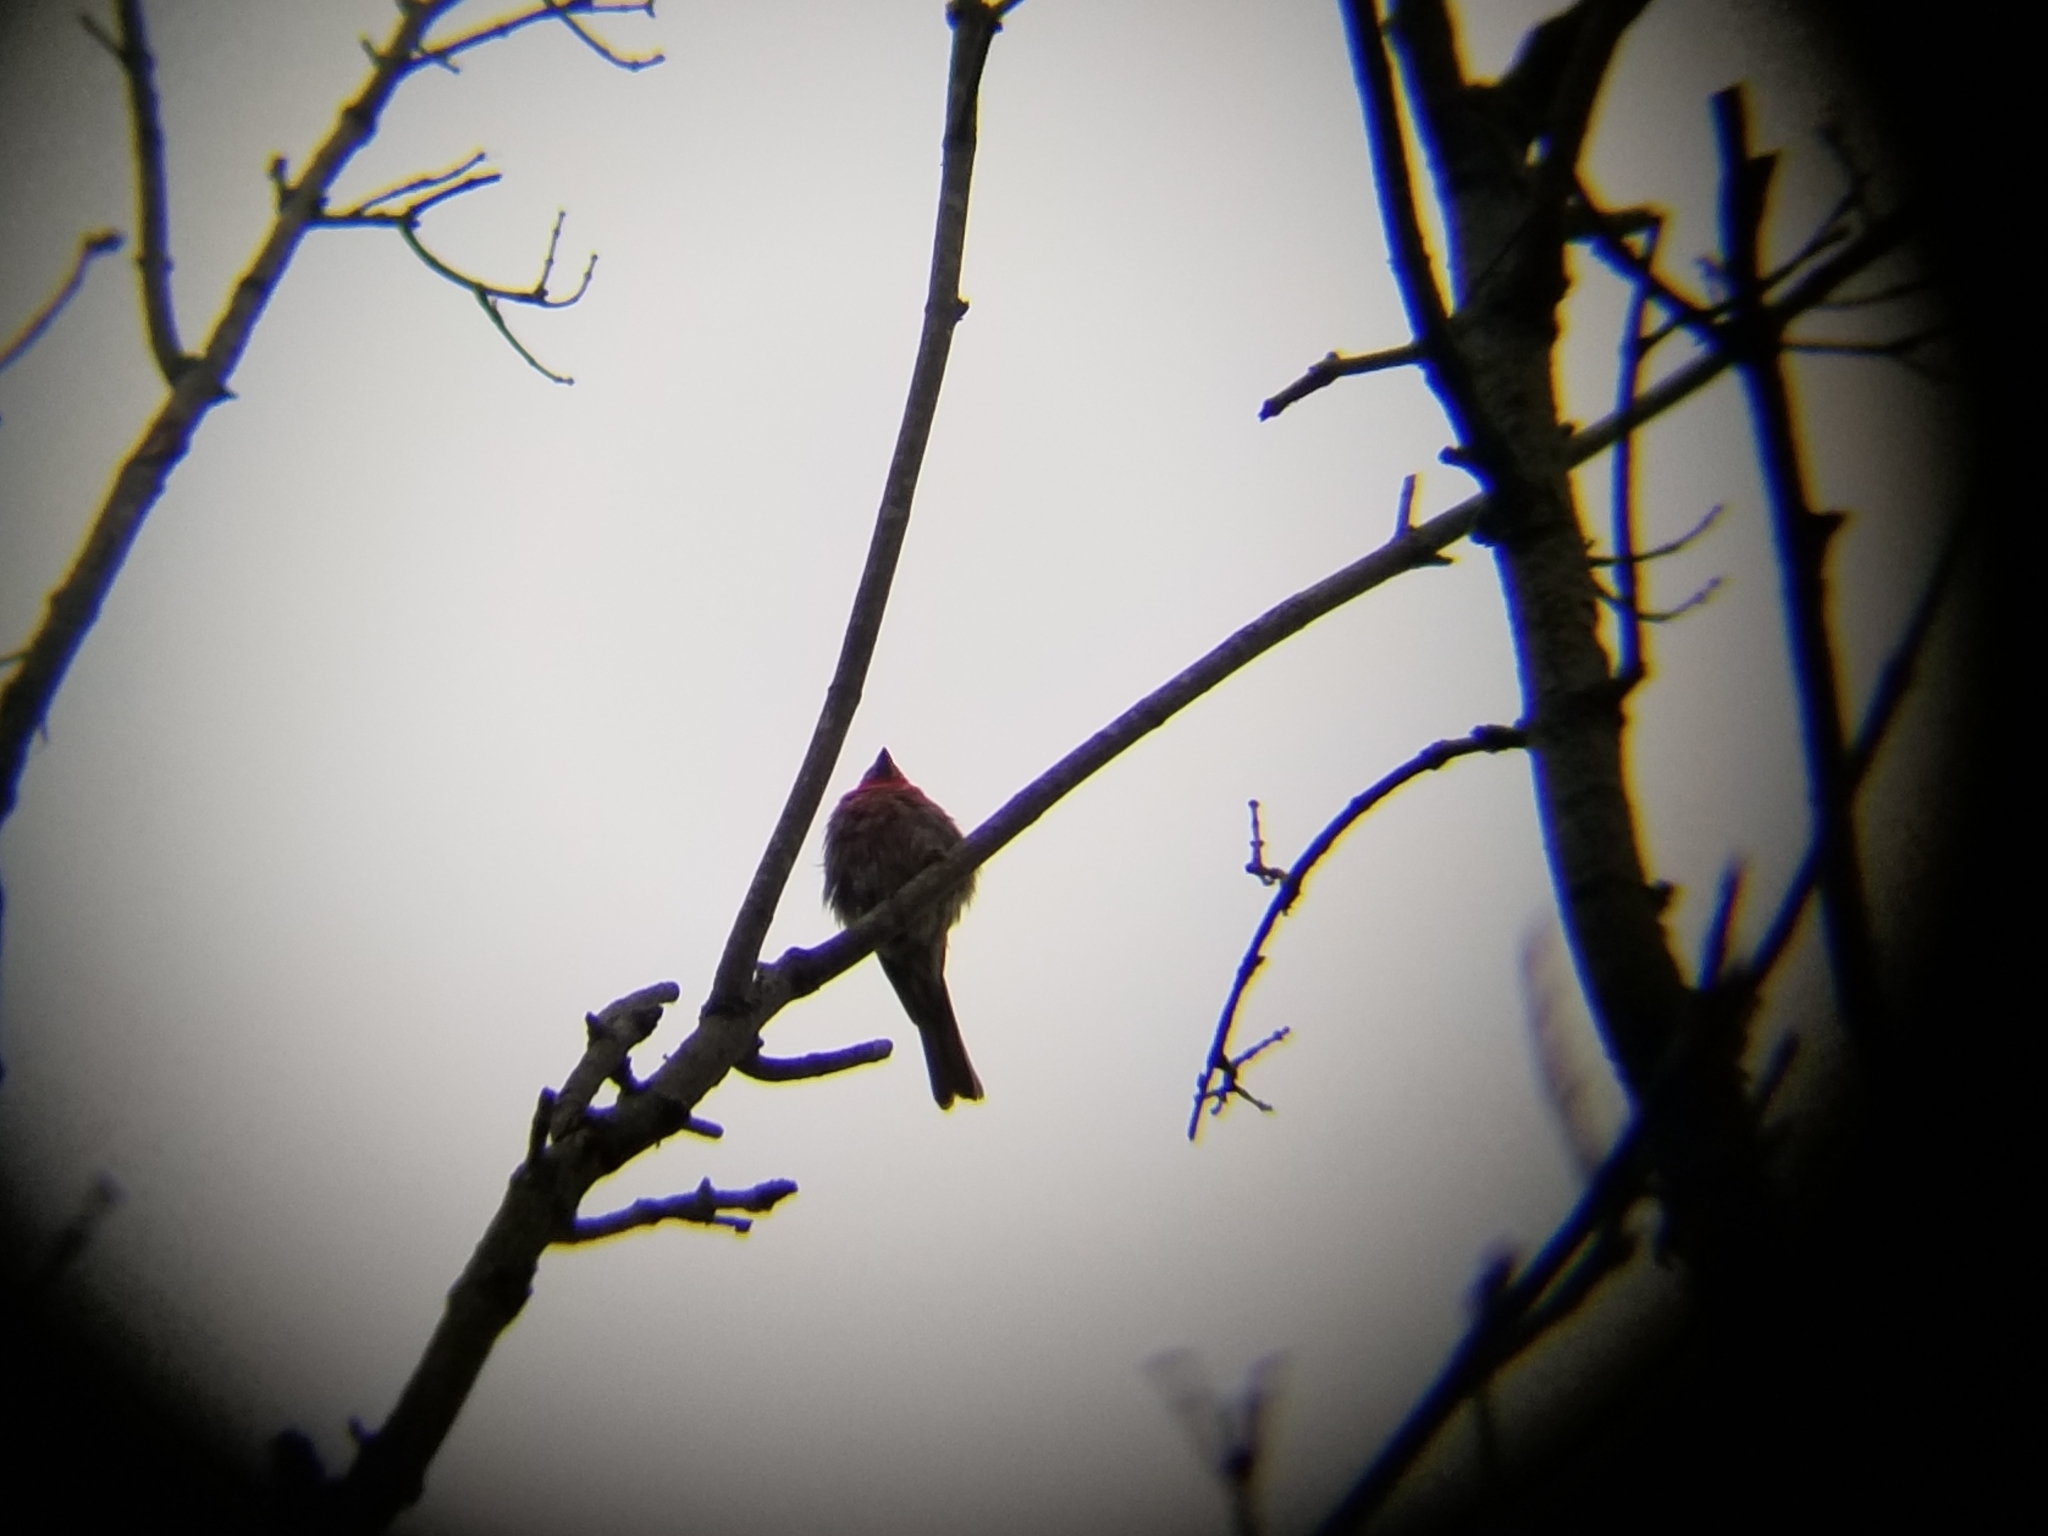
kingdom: Animalia
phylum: Chordata
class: Aves
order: Passeriformes
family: Fringillidae
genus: Haemorhous
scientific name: Haemorhous mexicanus
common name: House finch
